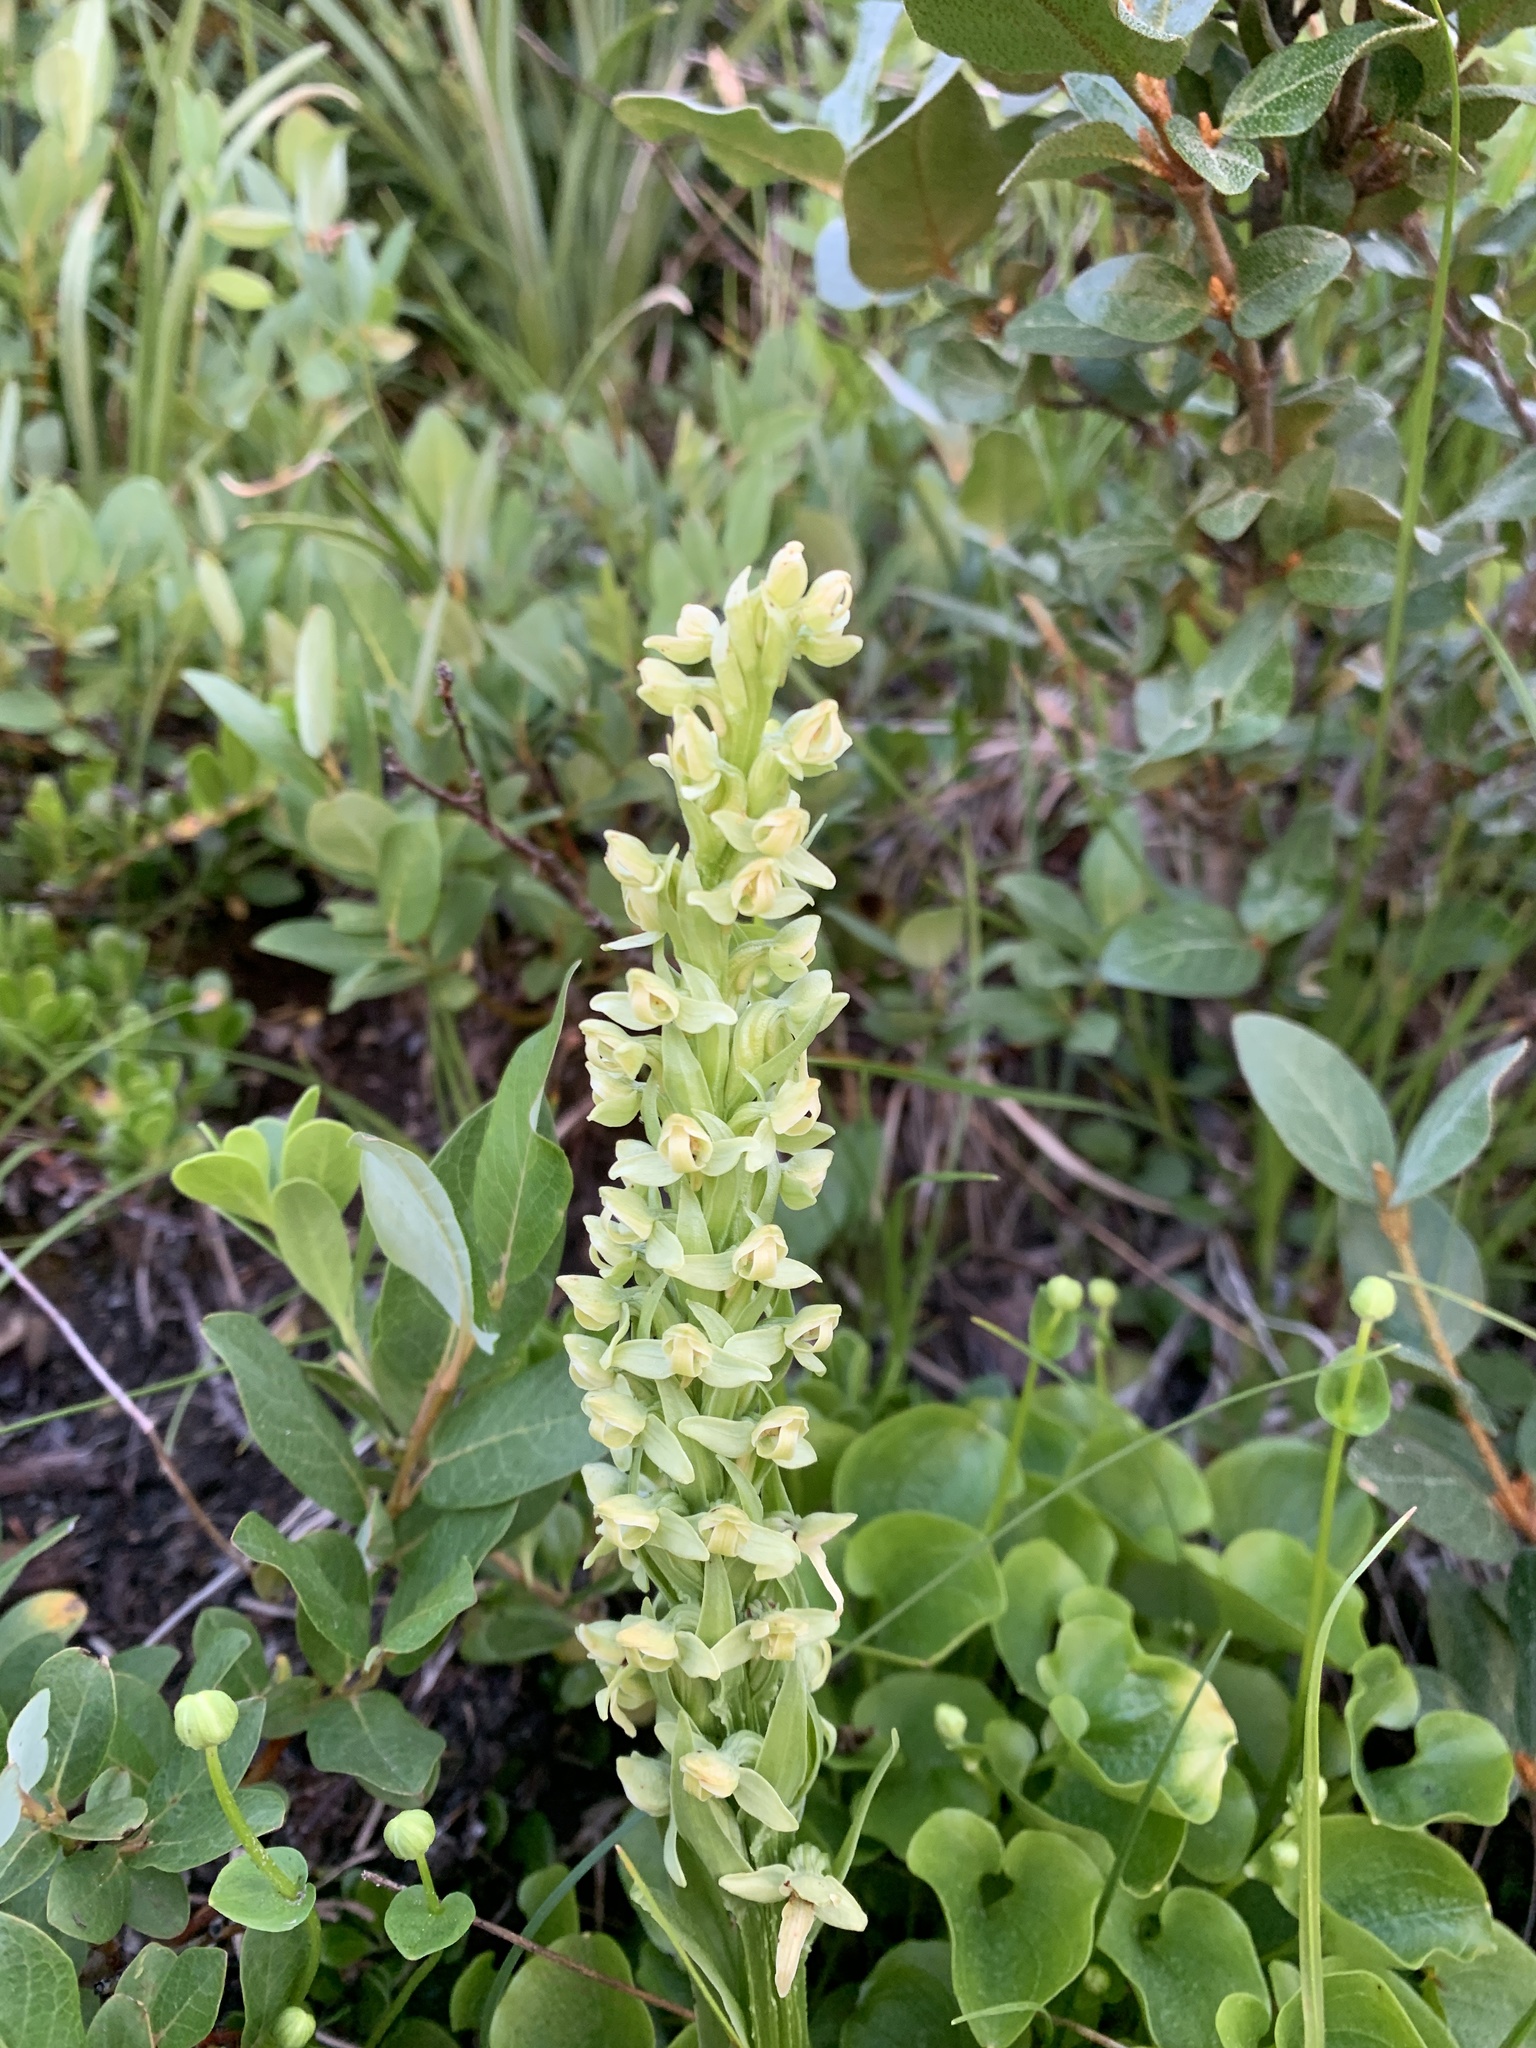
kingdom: Plantae
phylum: Tracheophyta
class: Liliopsida
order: Asparagales
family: Orchidaceae
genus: Platanthera
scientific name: Platanthera huronensis
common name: Fragrant green orchid
